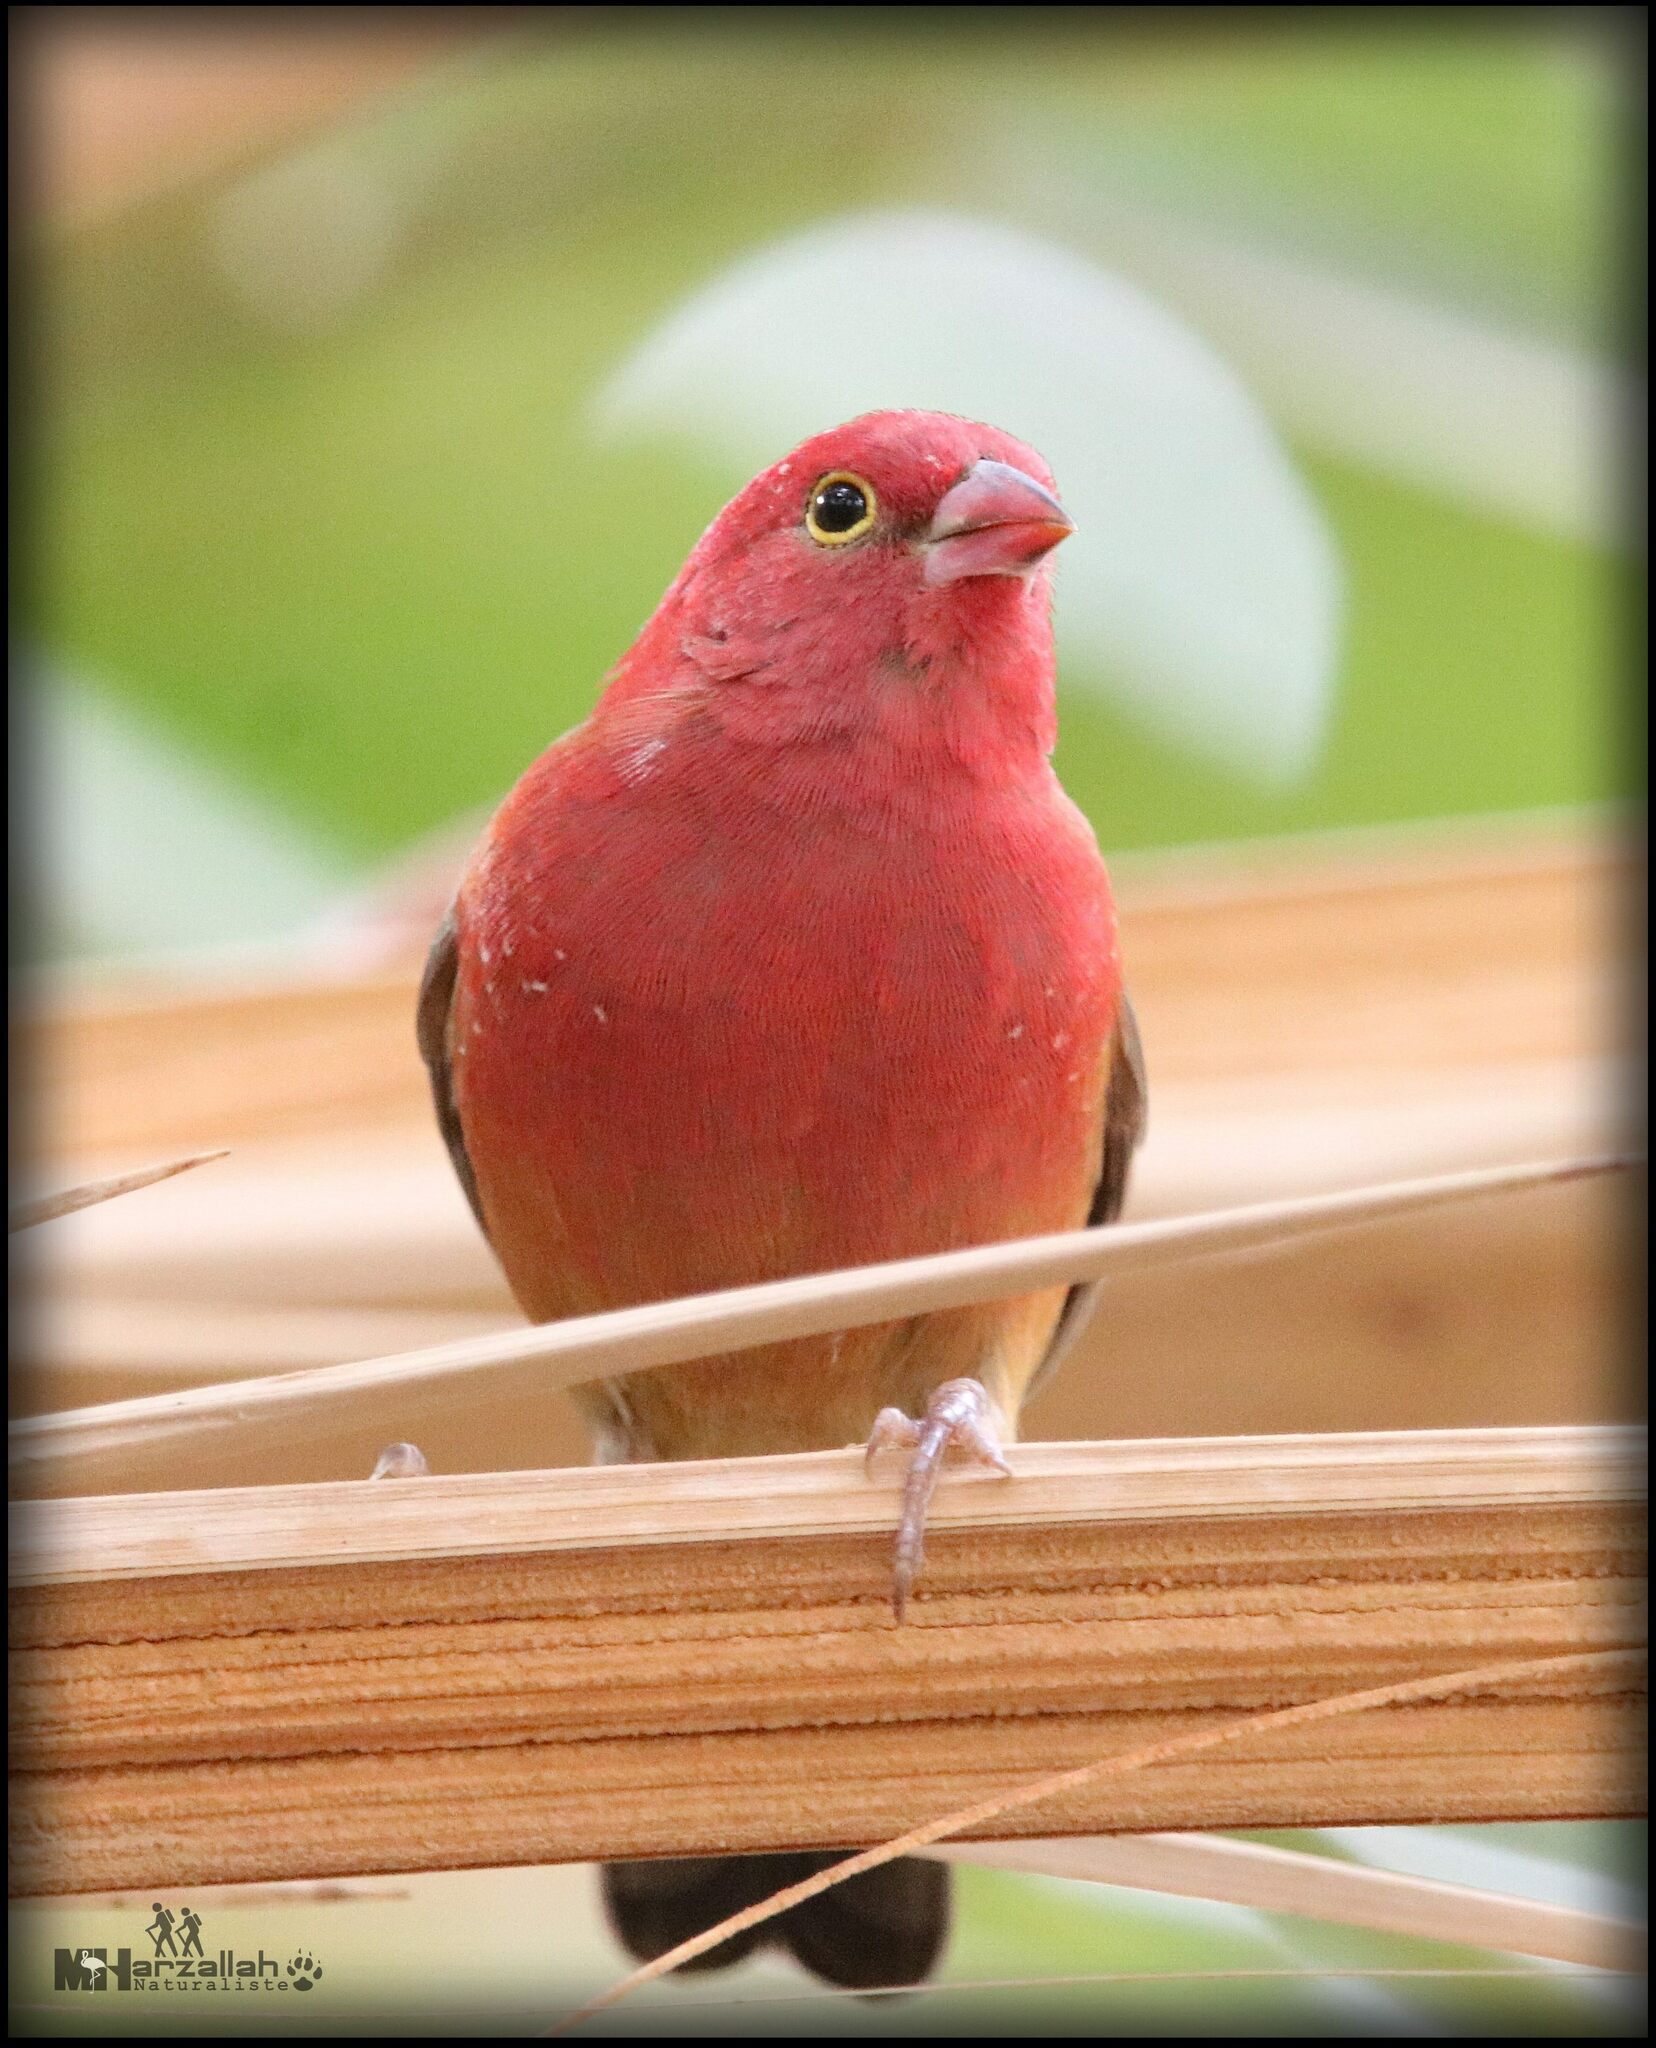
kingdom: Animalia
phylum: Chordata
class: Aves
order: Passeriformes
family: Estrildidae
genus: Lagonosticta
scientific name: Lagonosticta senegala
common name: Red-billed firefinch
